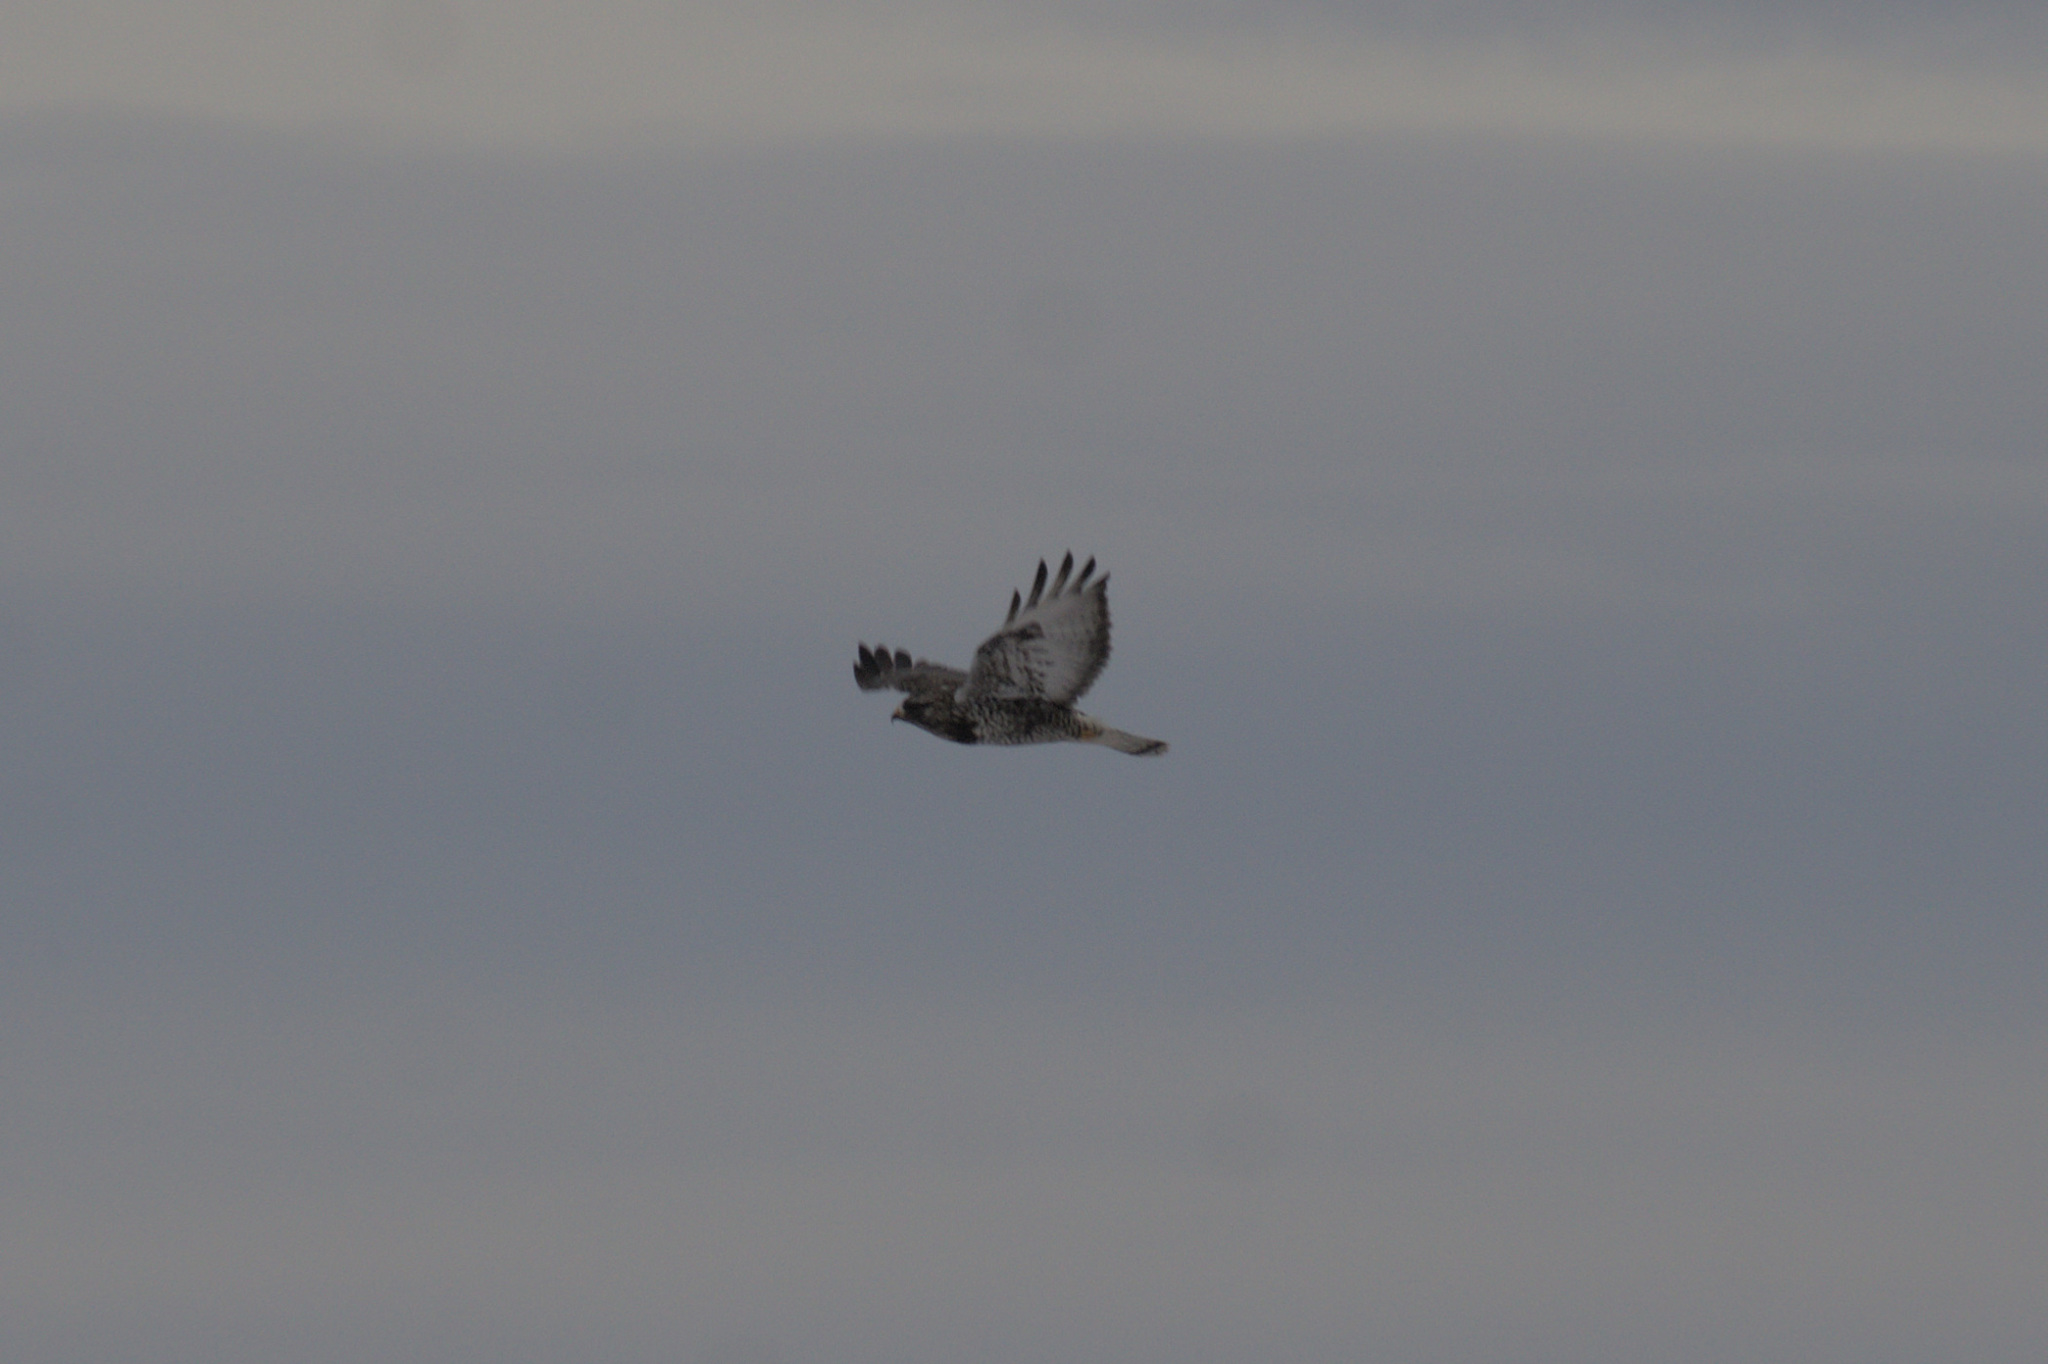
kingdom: Animalia
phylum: Chordata
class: Aves
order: Accipitriformes
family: Accipitridae
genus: Buteo
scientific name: Buteo lagopus
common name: Rough-legged buzzard
